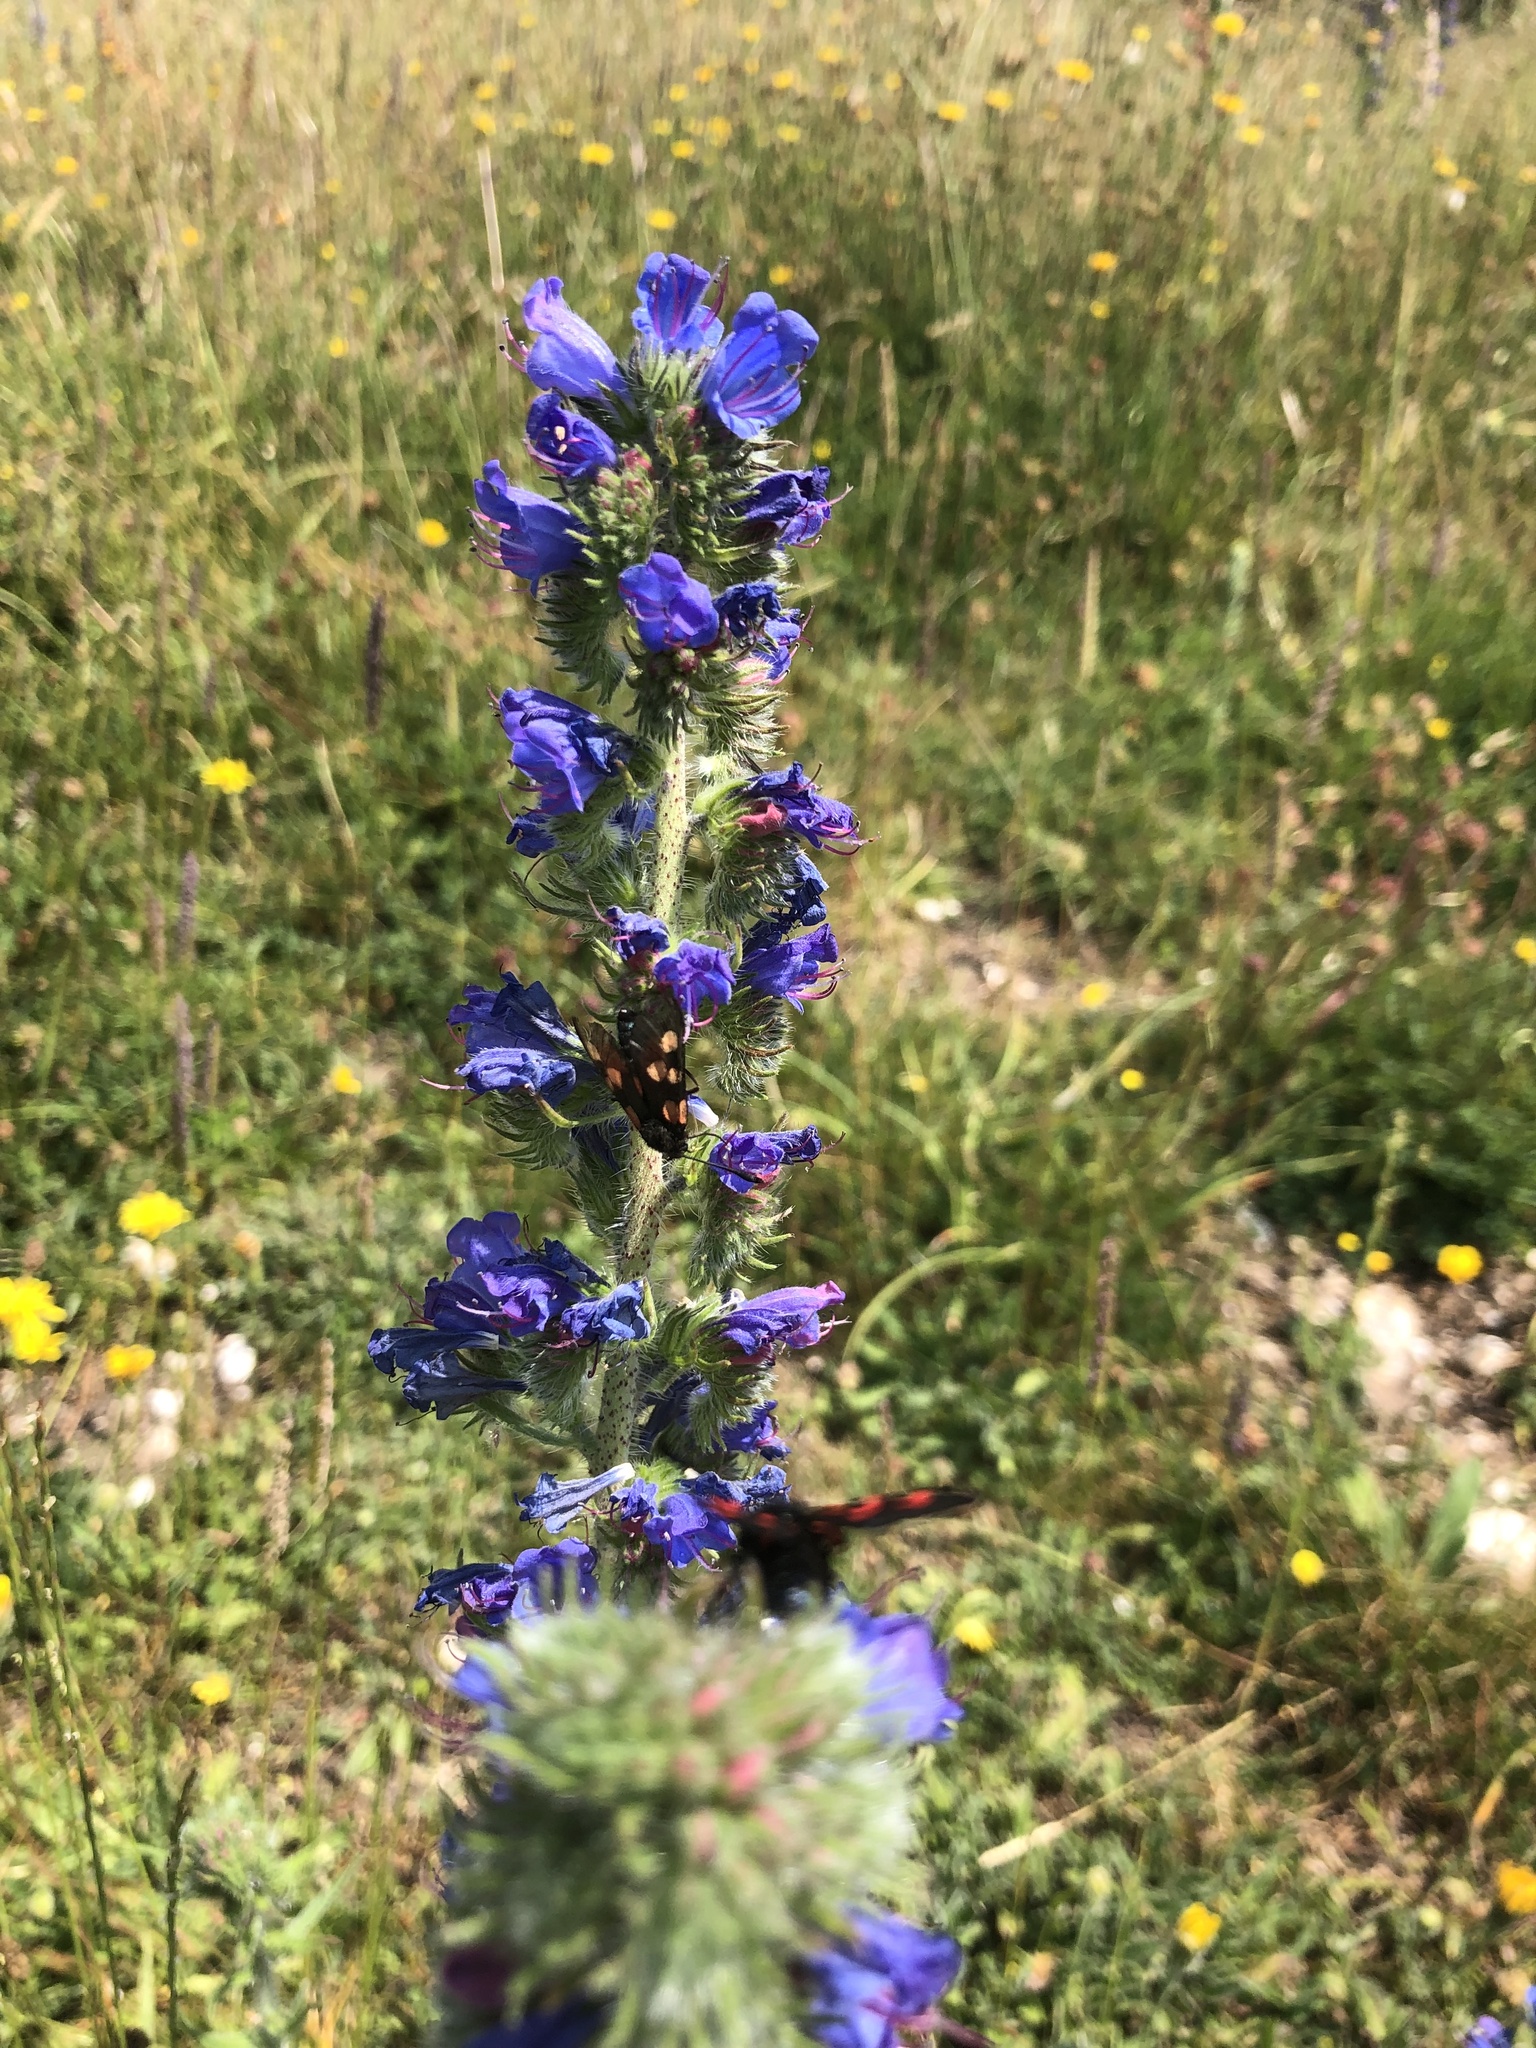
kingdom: Plantae
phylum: Tracheophyta
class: Magnoliopsida
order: Boraginales
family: Boraginaceae
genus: Echium
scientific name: Echium vulgare
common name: Common viper's bugloss
